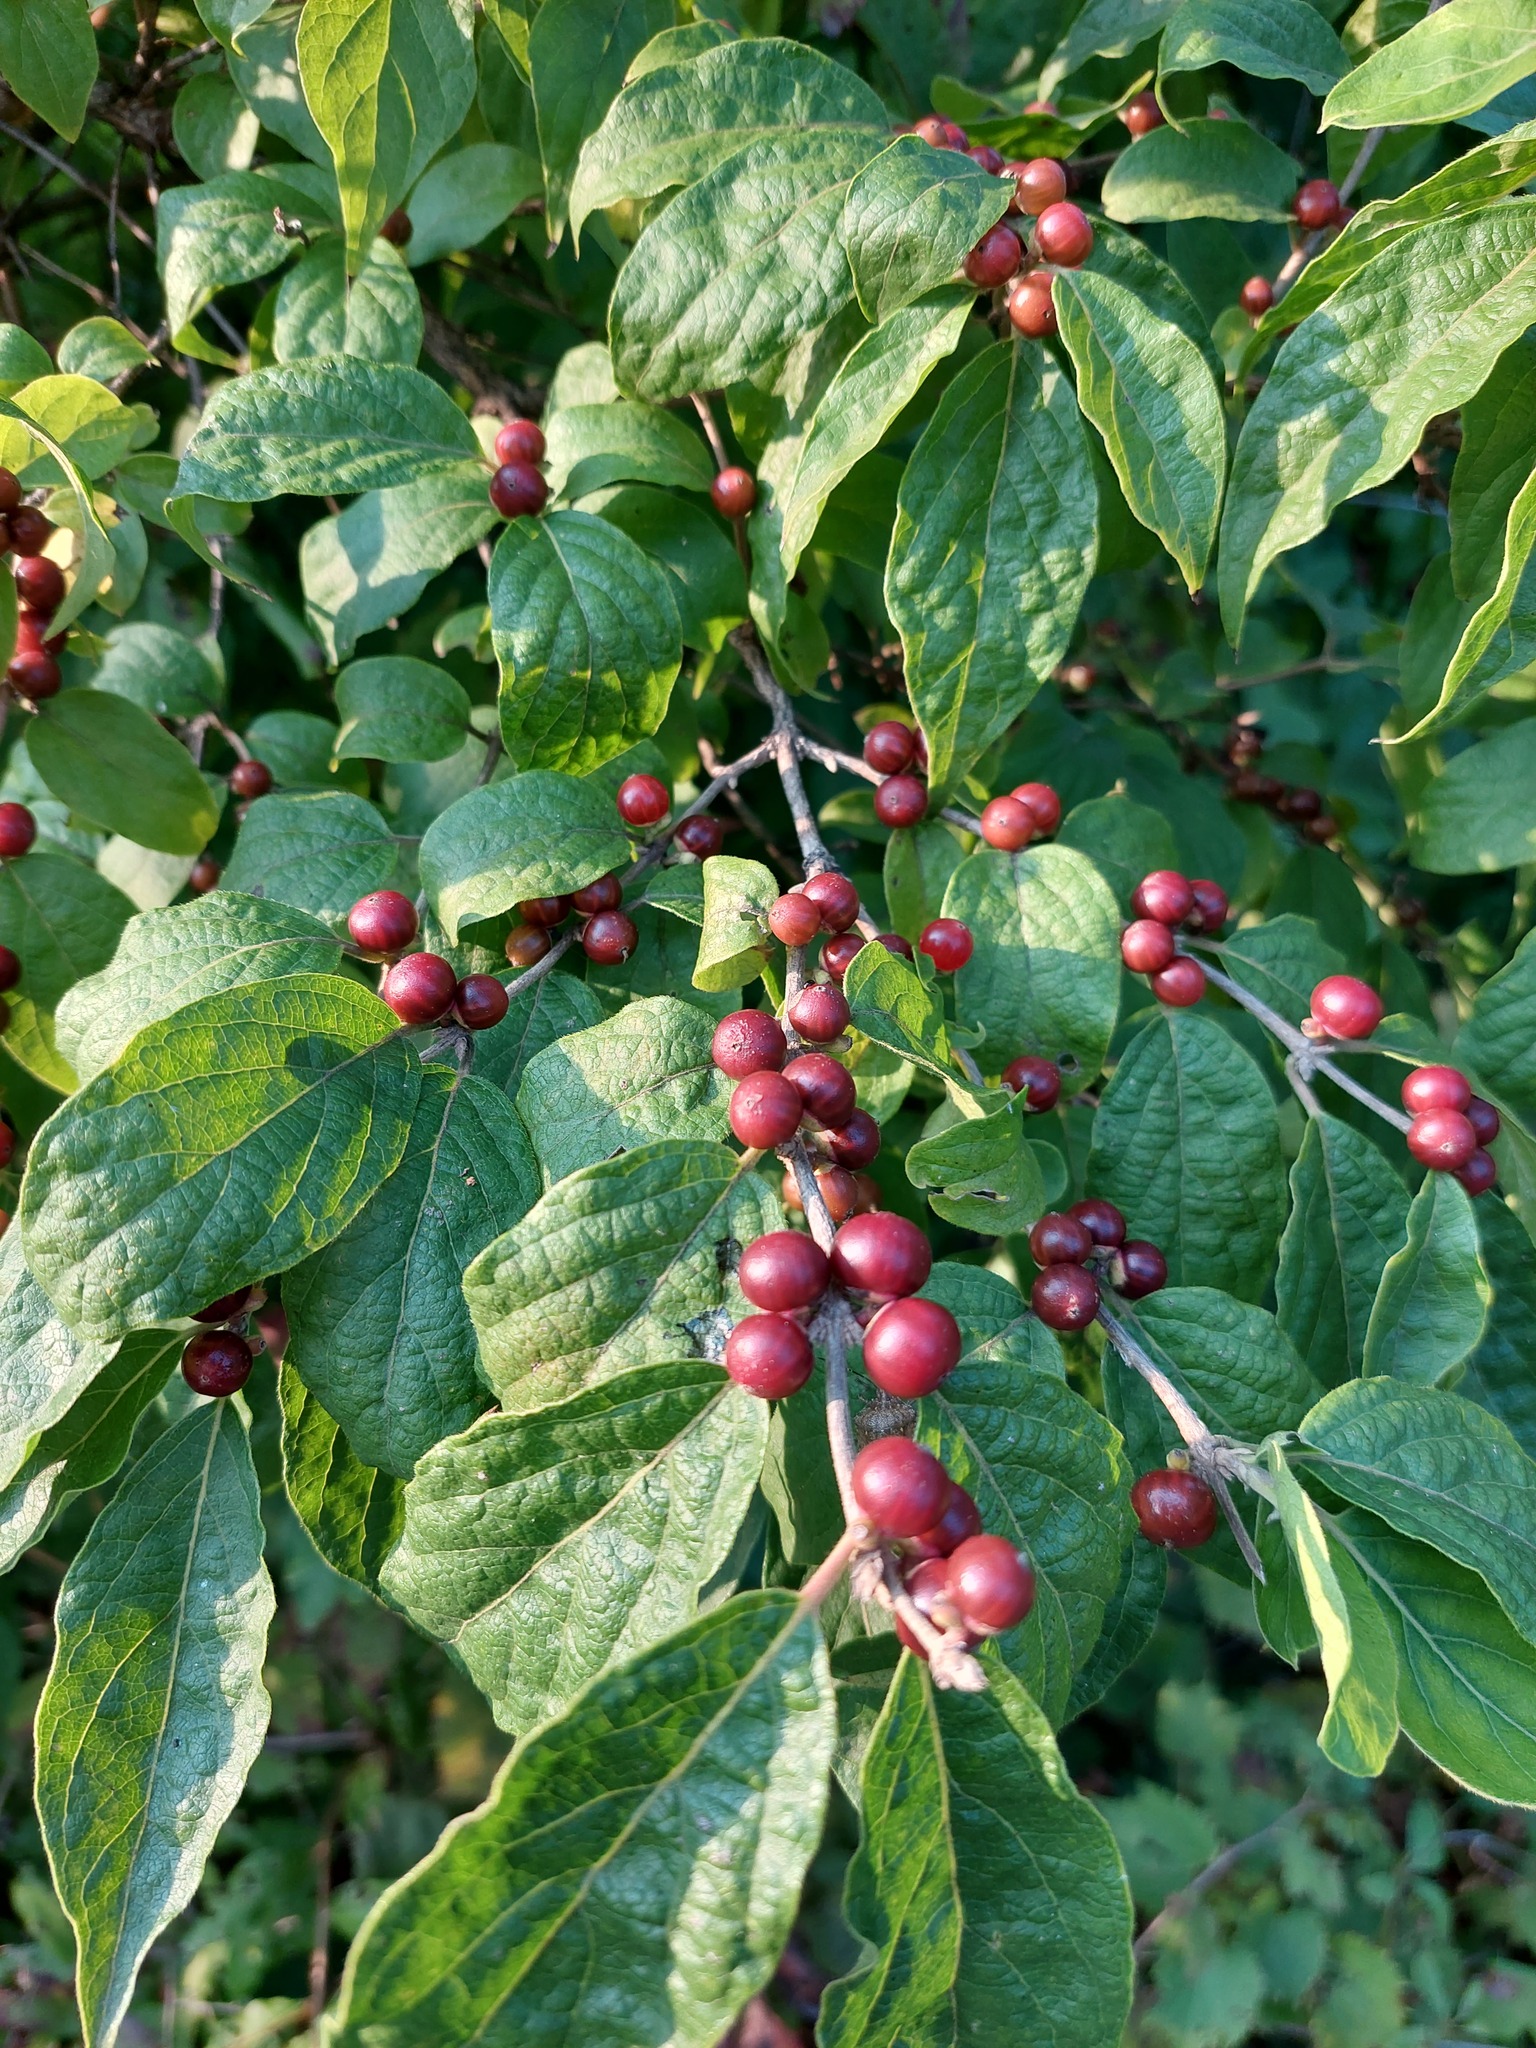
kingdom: Plantae
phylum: Tracheophyta
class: Magnoliopsida
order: Dipsacales
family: Caprifoliaceae
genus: Lonicera
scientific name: Lonicera maackii
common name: Amur honeysuckle
